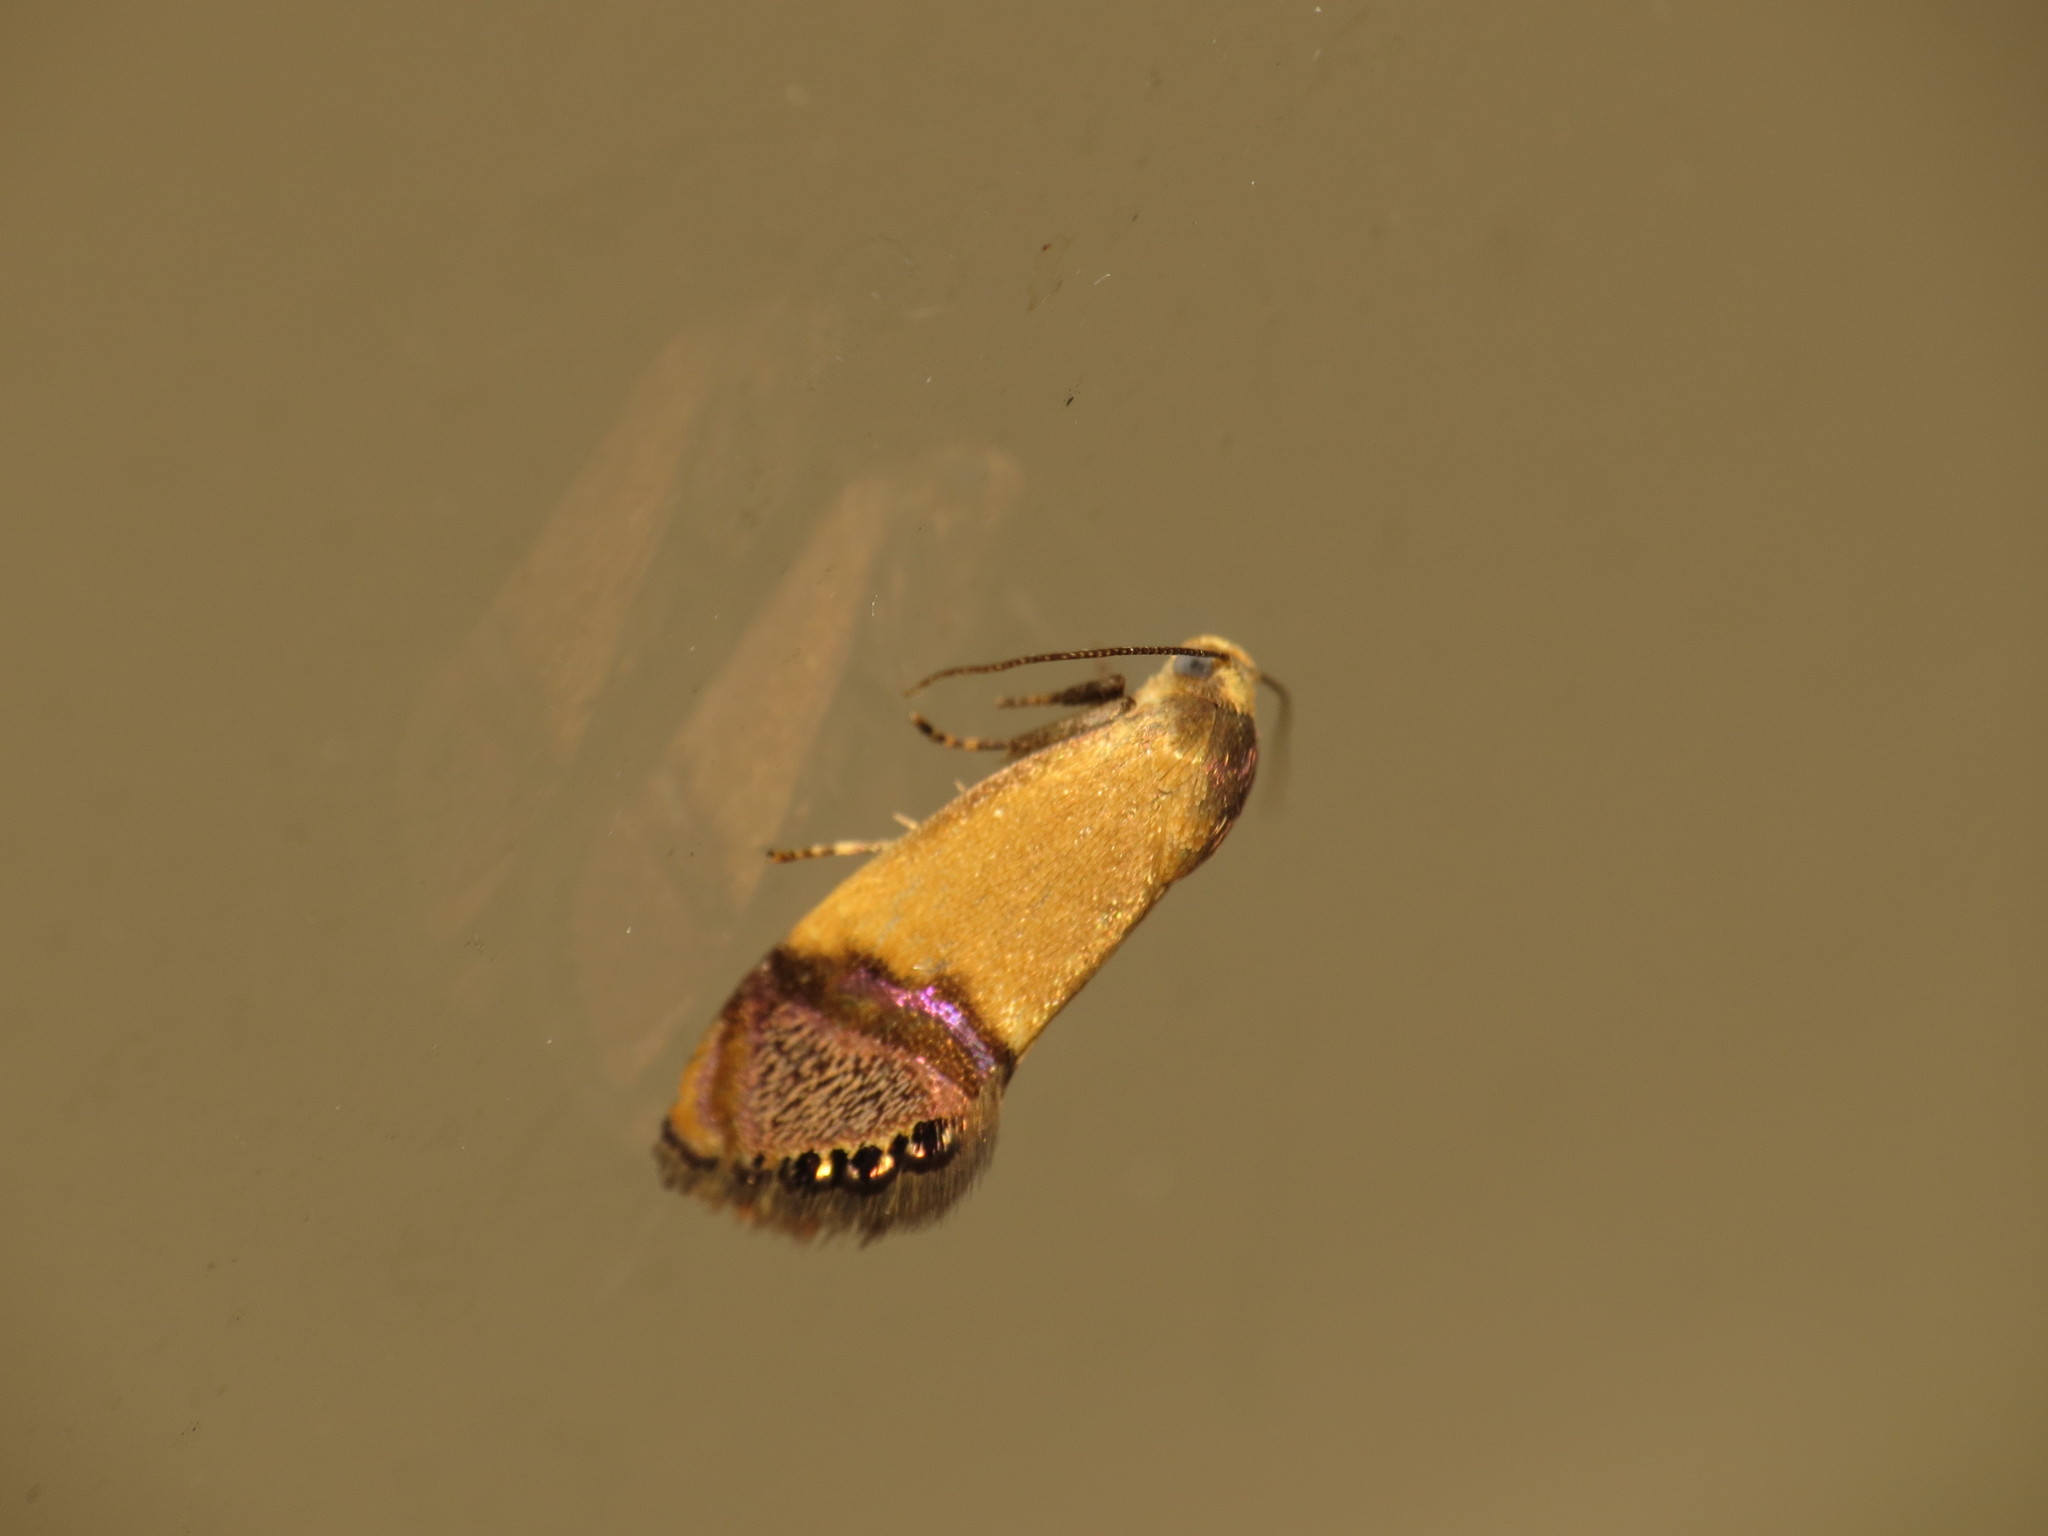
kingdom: Animalia
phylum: Arthropoda
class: Insecta
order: Lepidoptera
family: Depressariidae
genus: Eupselia
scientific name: Eupselia satrapella
